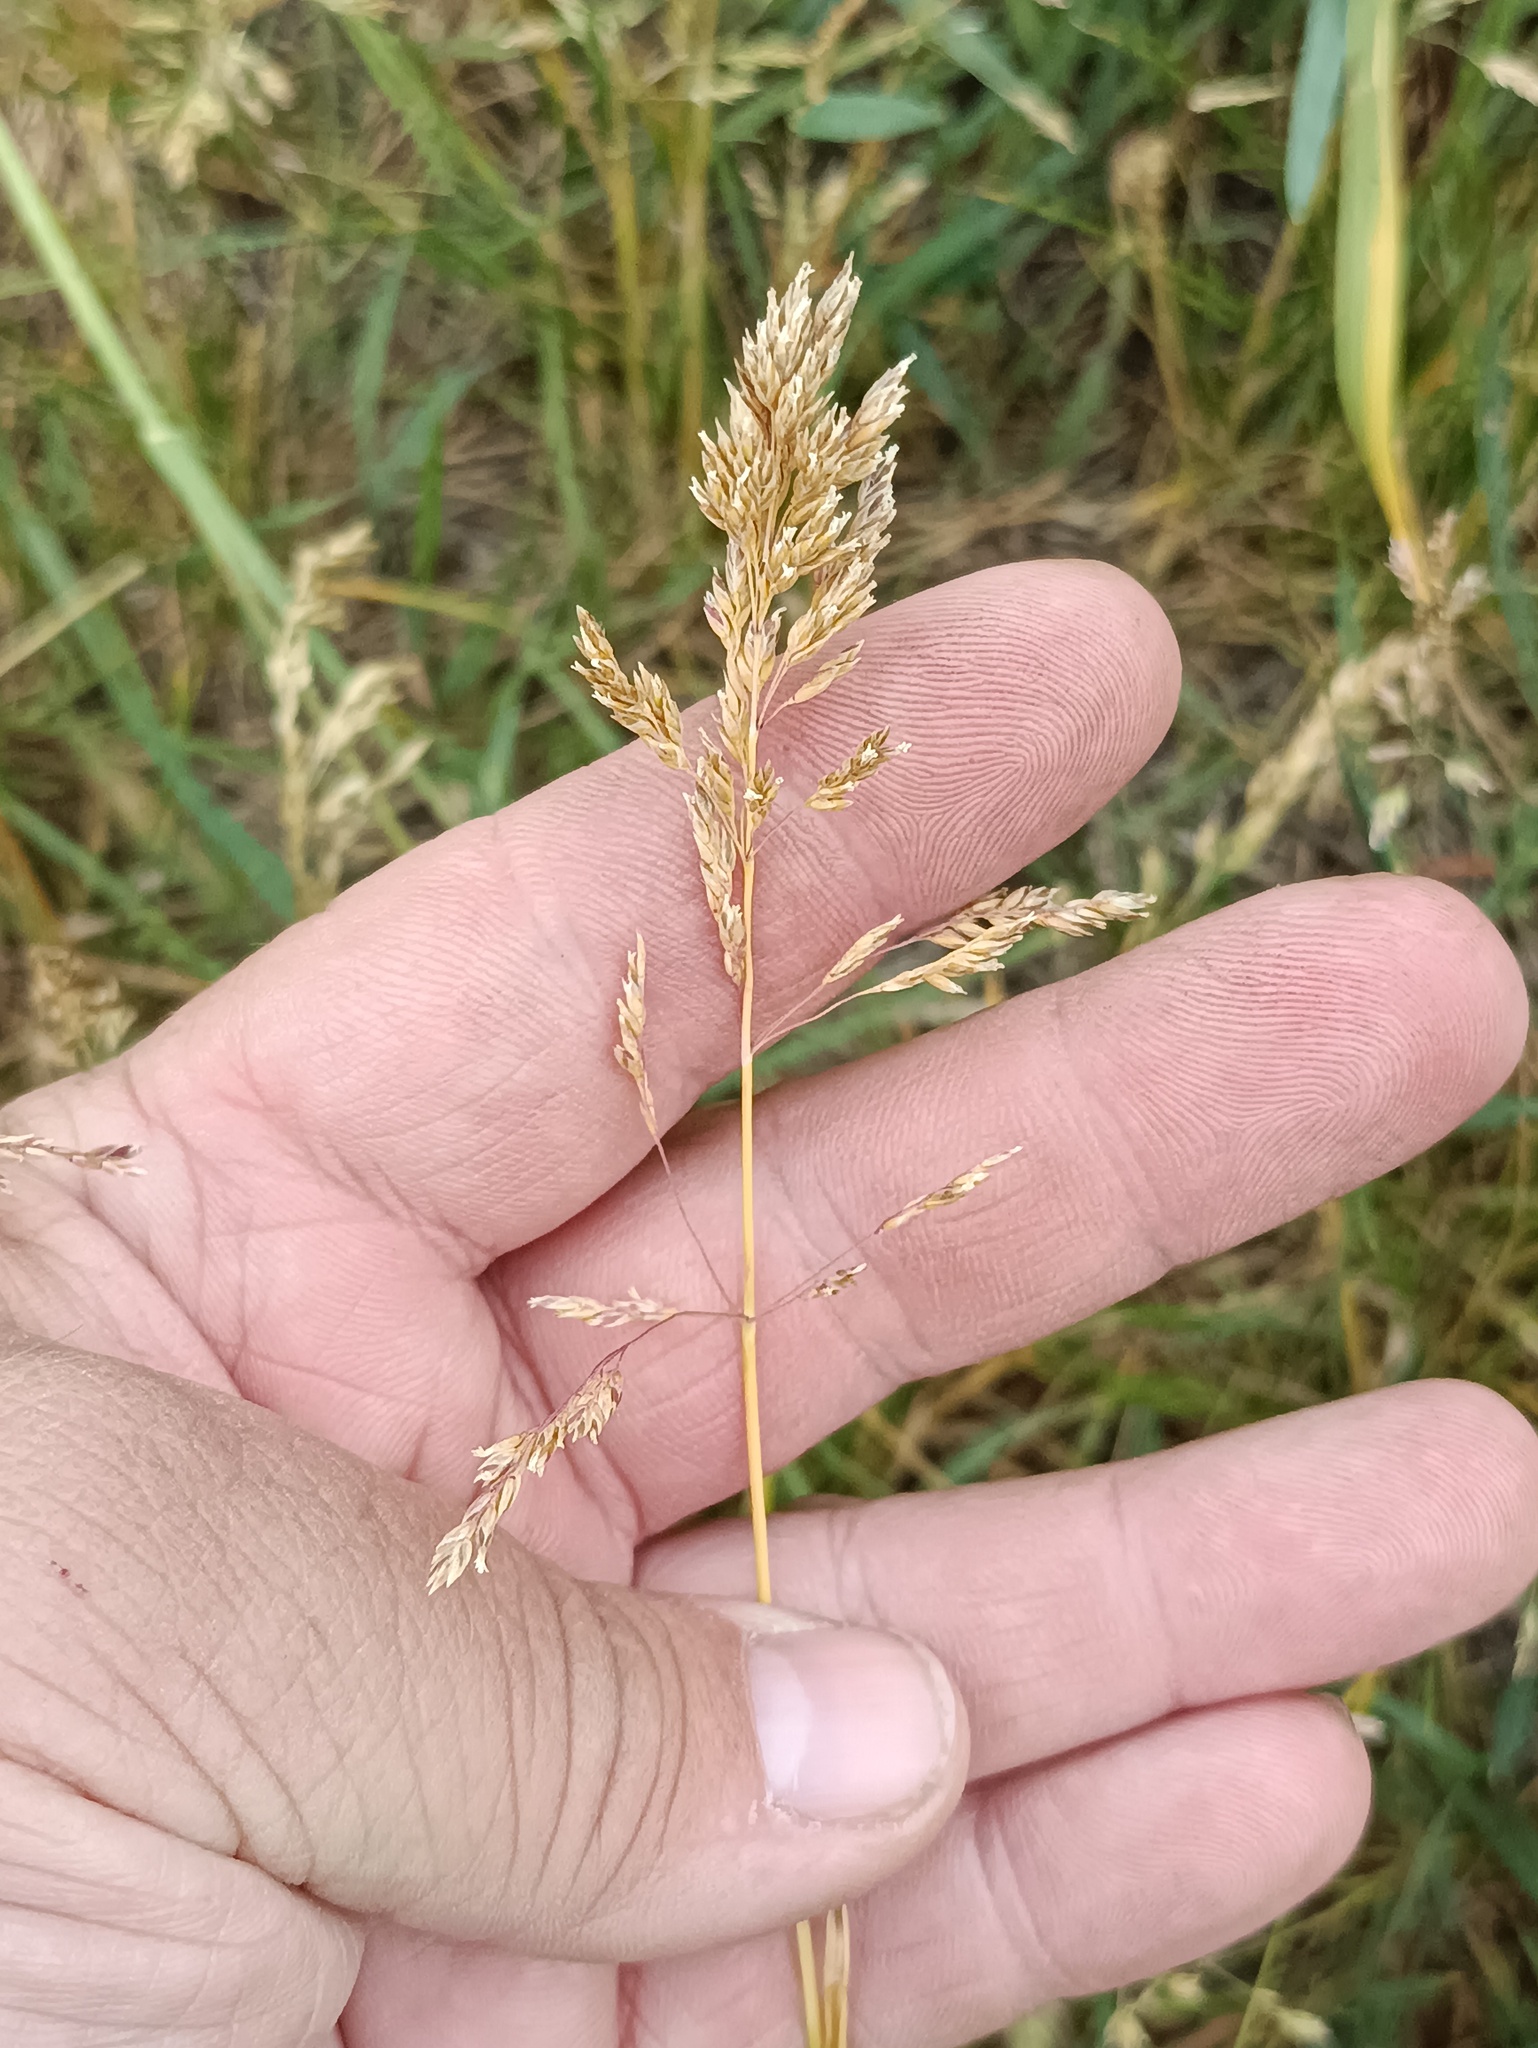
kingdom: Plantae
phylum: Tracheophyta
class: Liliopsida
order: Poales
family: Poaceae
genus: Poa
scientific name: Poa pratensis
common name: Kentucky bluegrass
